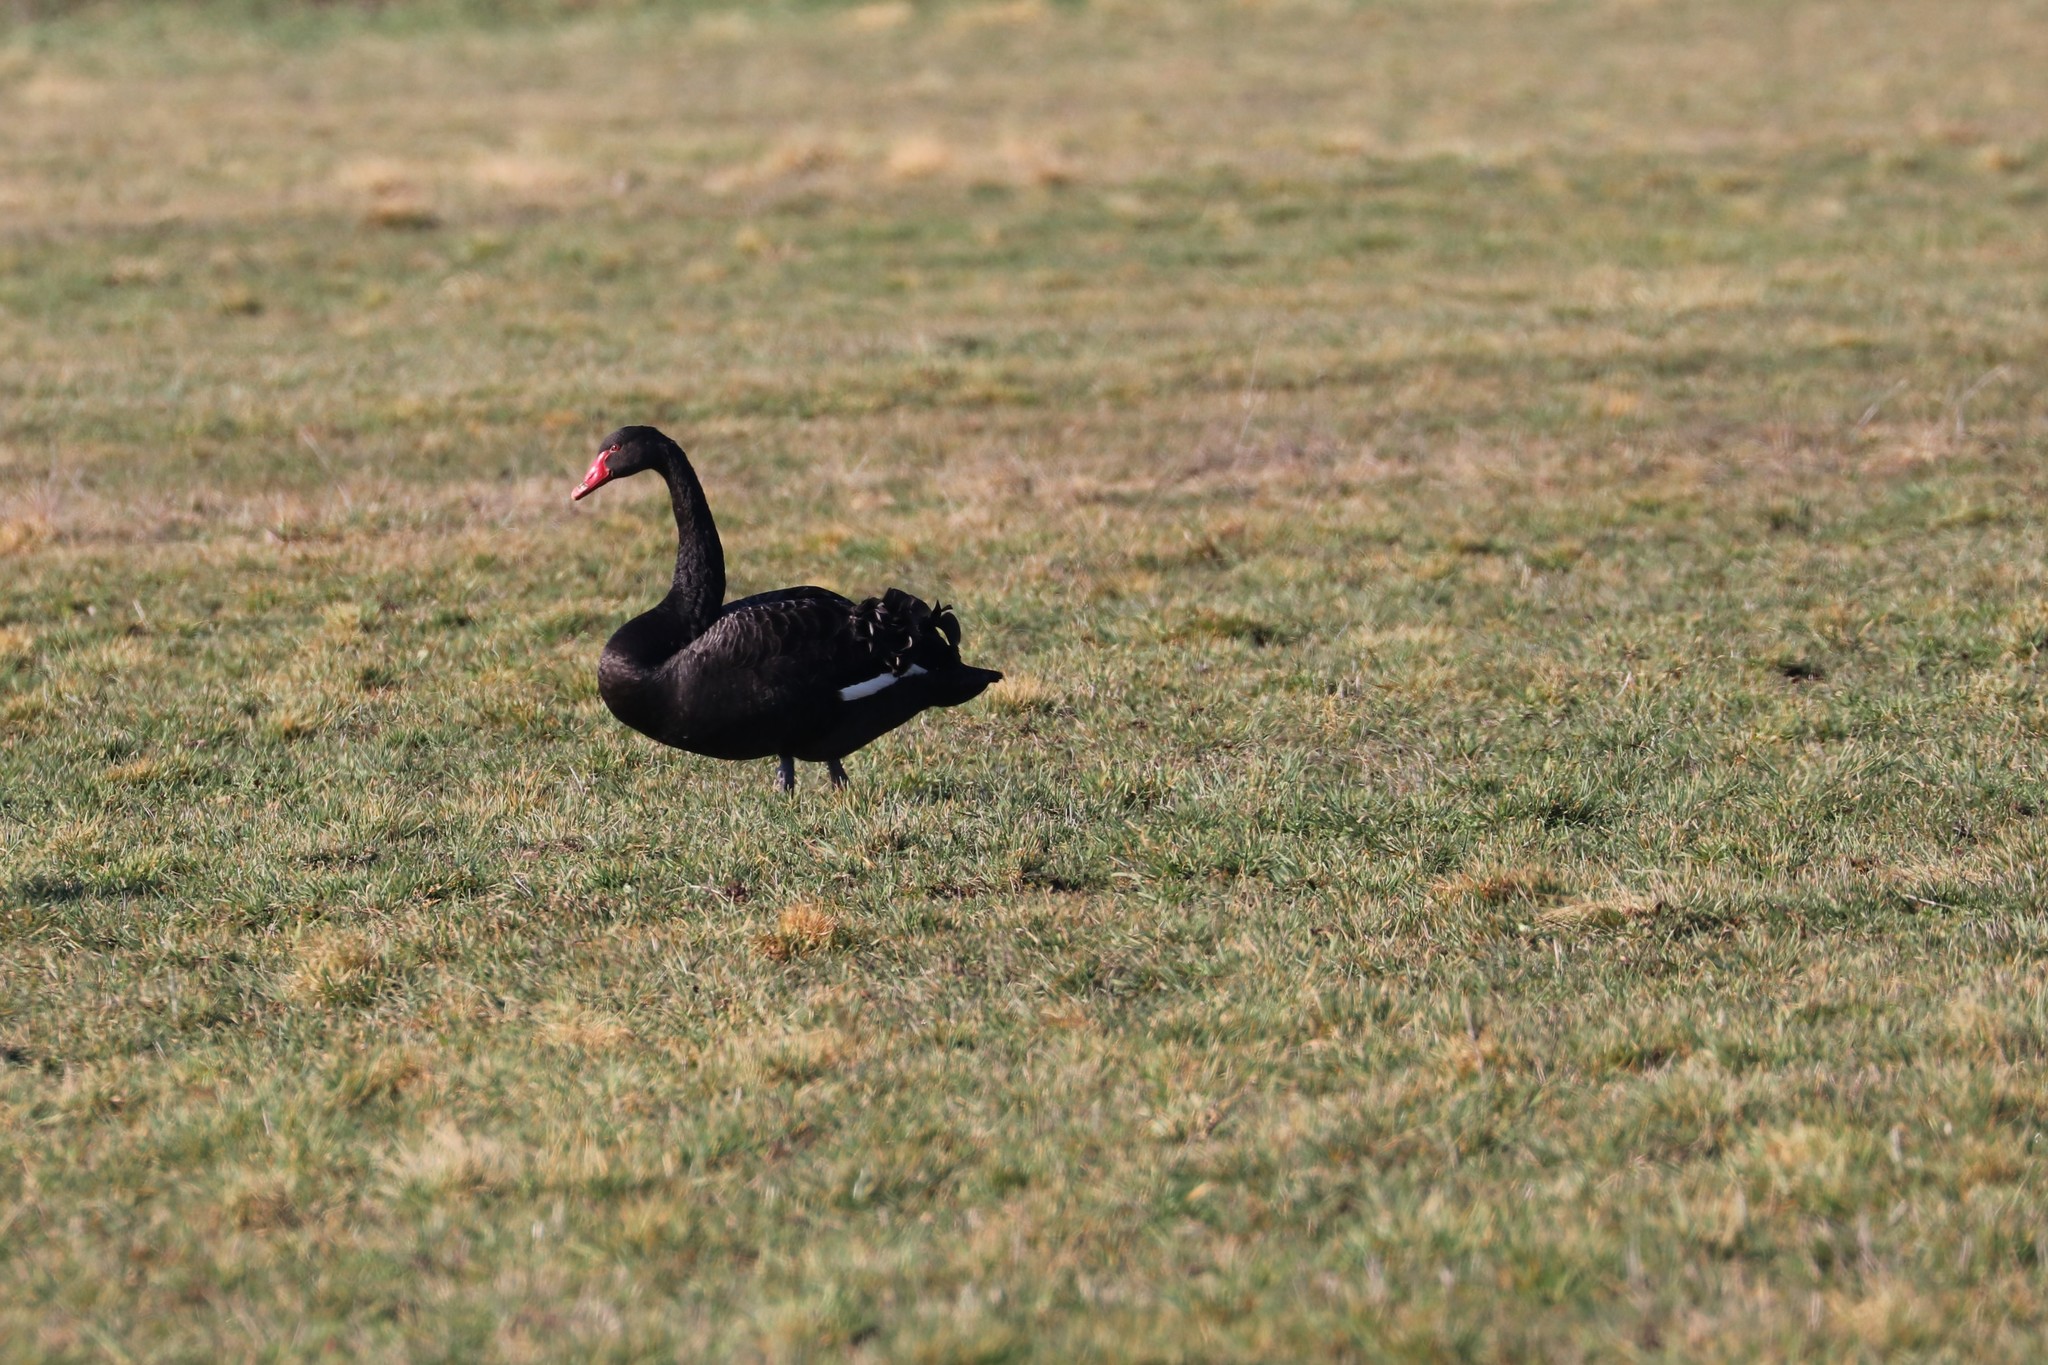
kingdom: Animalia
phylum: Chordata
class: Aves
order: Anseriformes
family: Anatidae
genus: Cygnus
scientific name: Cygnus atratus
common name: Black swan
